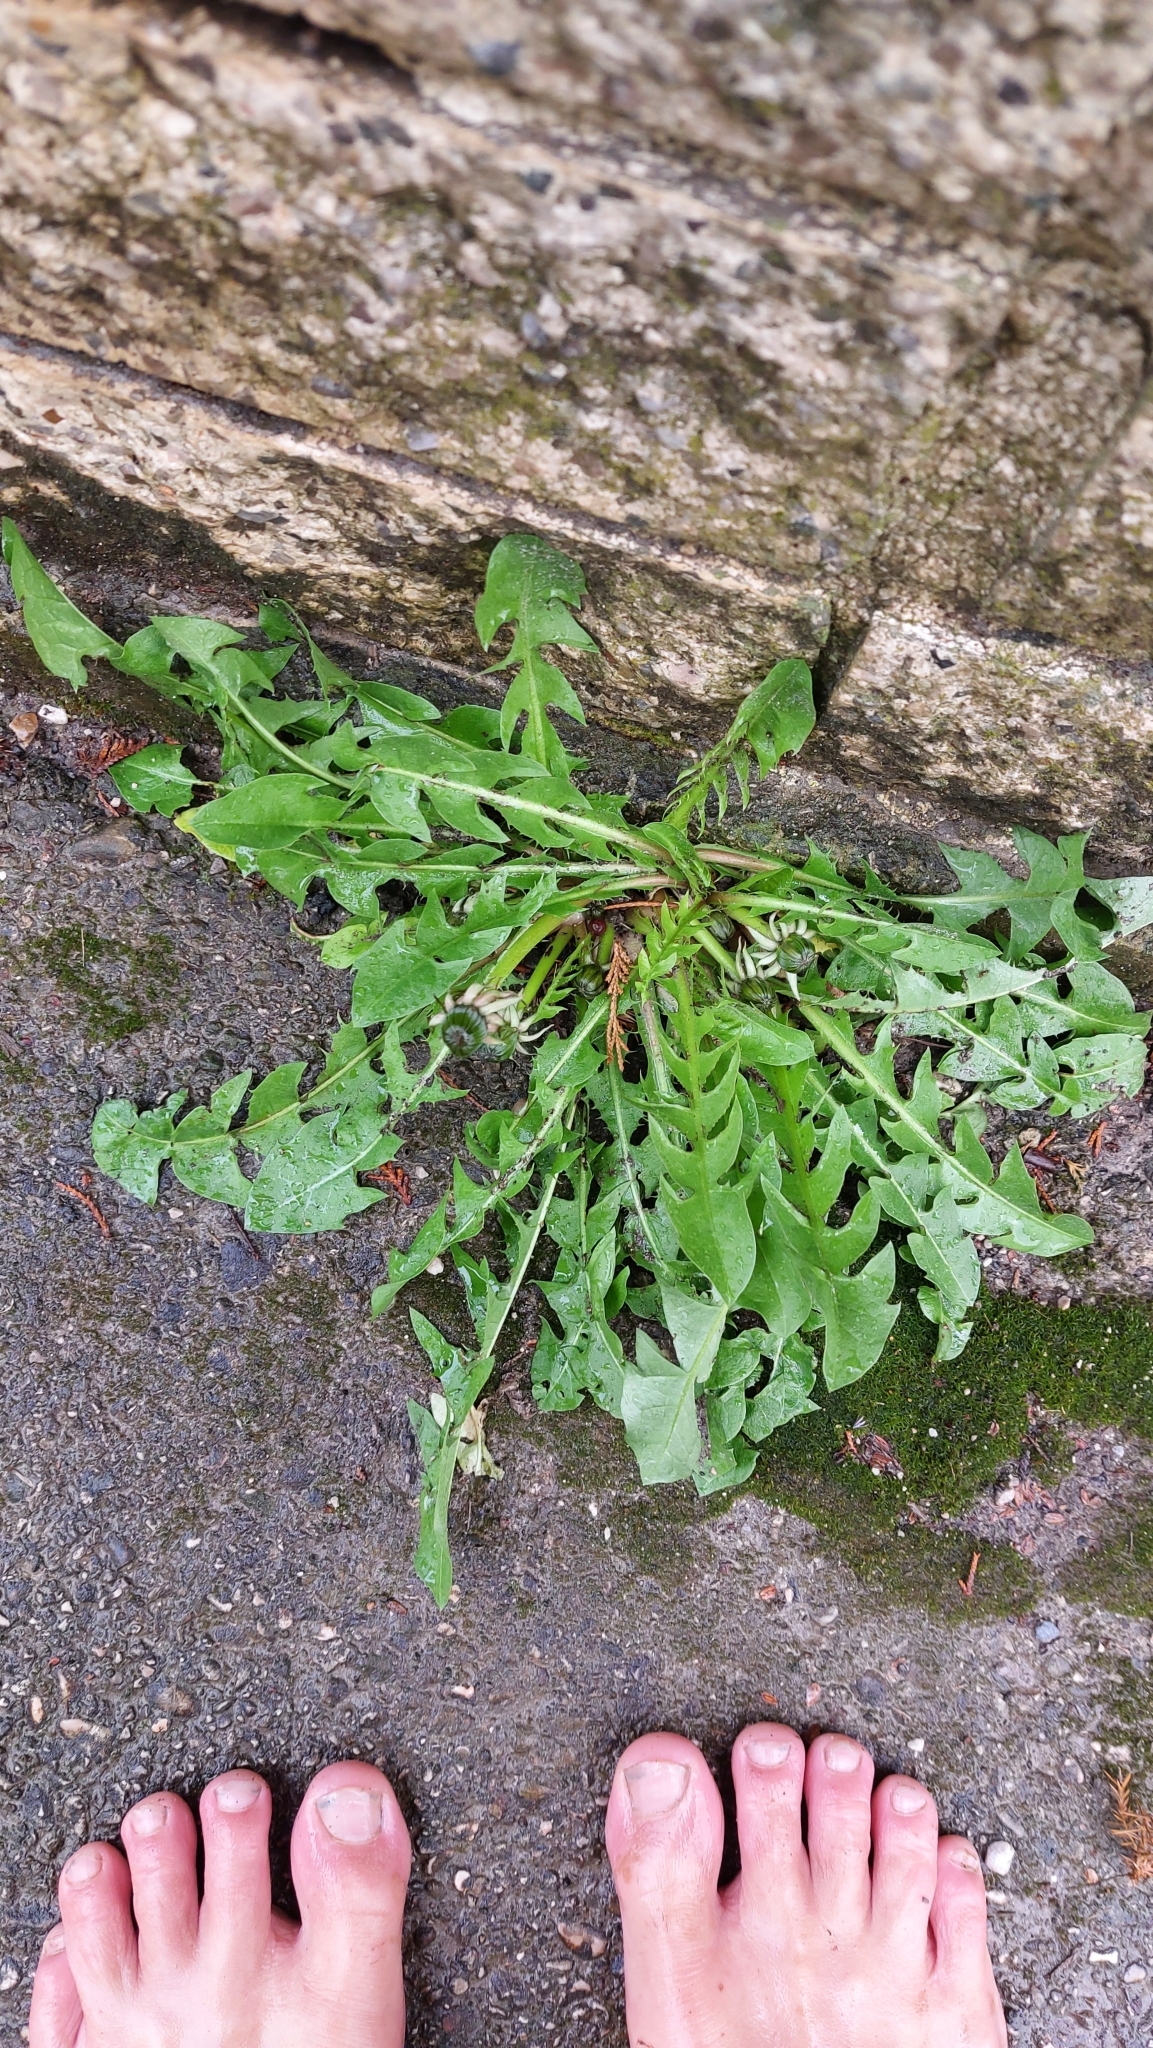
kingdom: Plantae
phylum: Tracheophyta
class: Magnoliopsida
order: Asterales
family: Asteraceae
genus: Taraxacum
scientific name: Taraxacum
